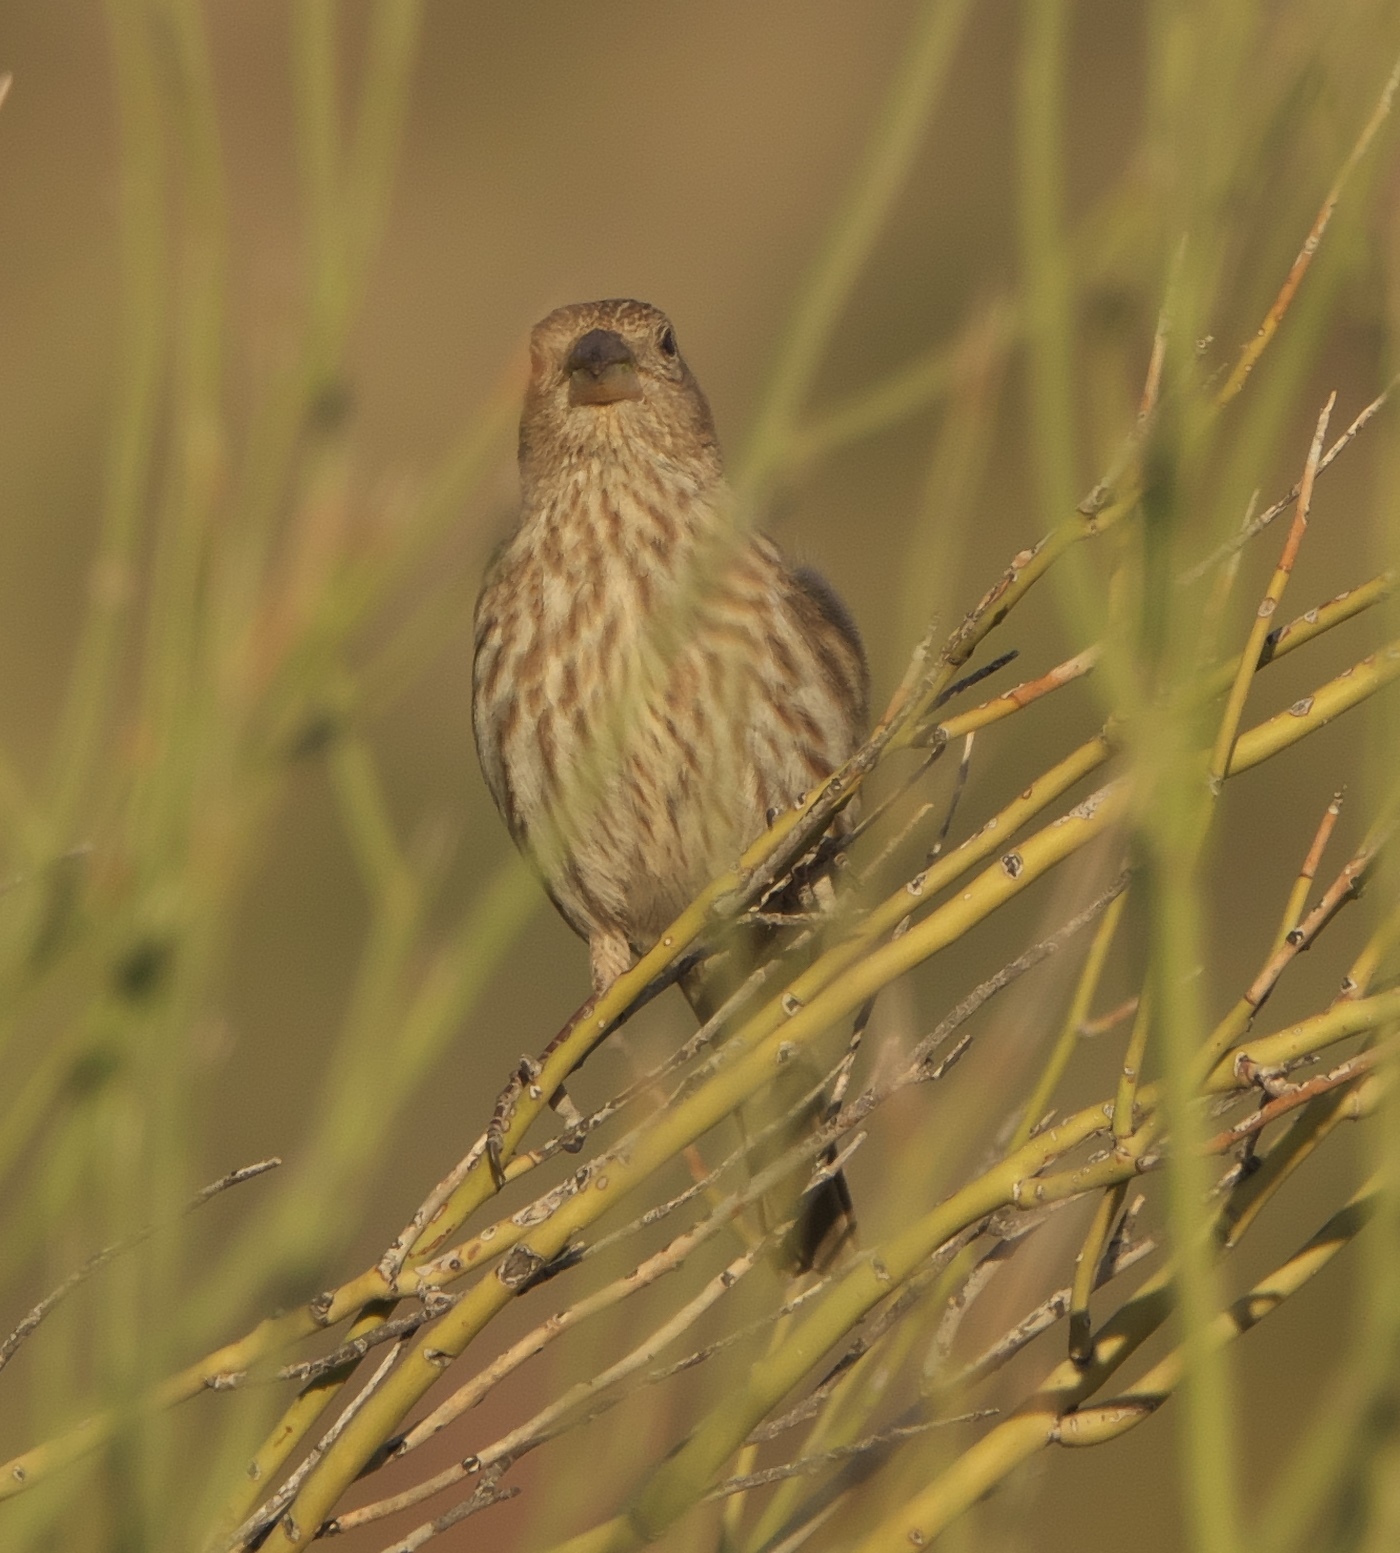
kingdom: Animalia
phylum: Chordata
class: Aves
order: Passeriformes
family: Fringillidae
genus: Haemorhous
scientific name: Haemorhous mexicanus
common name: House finch
